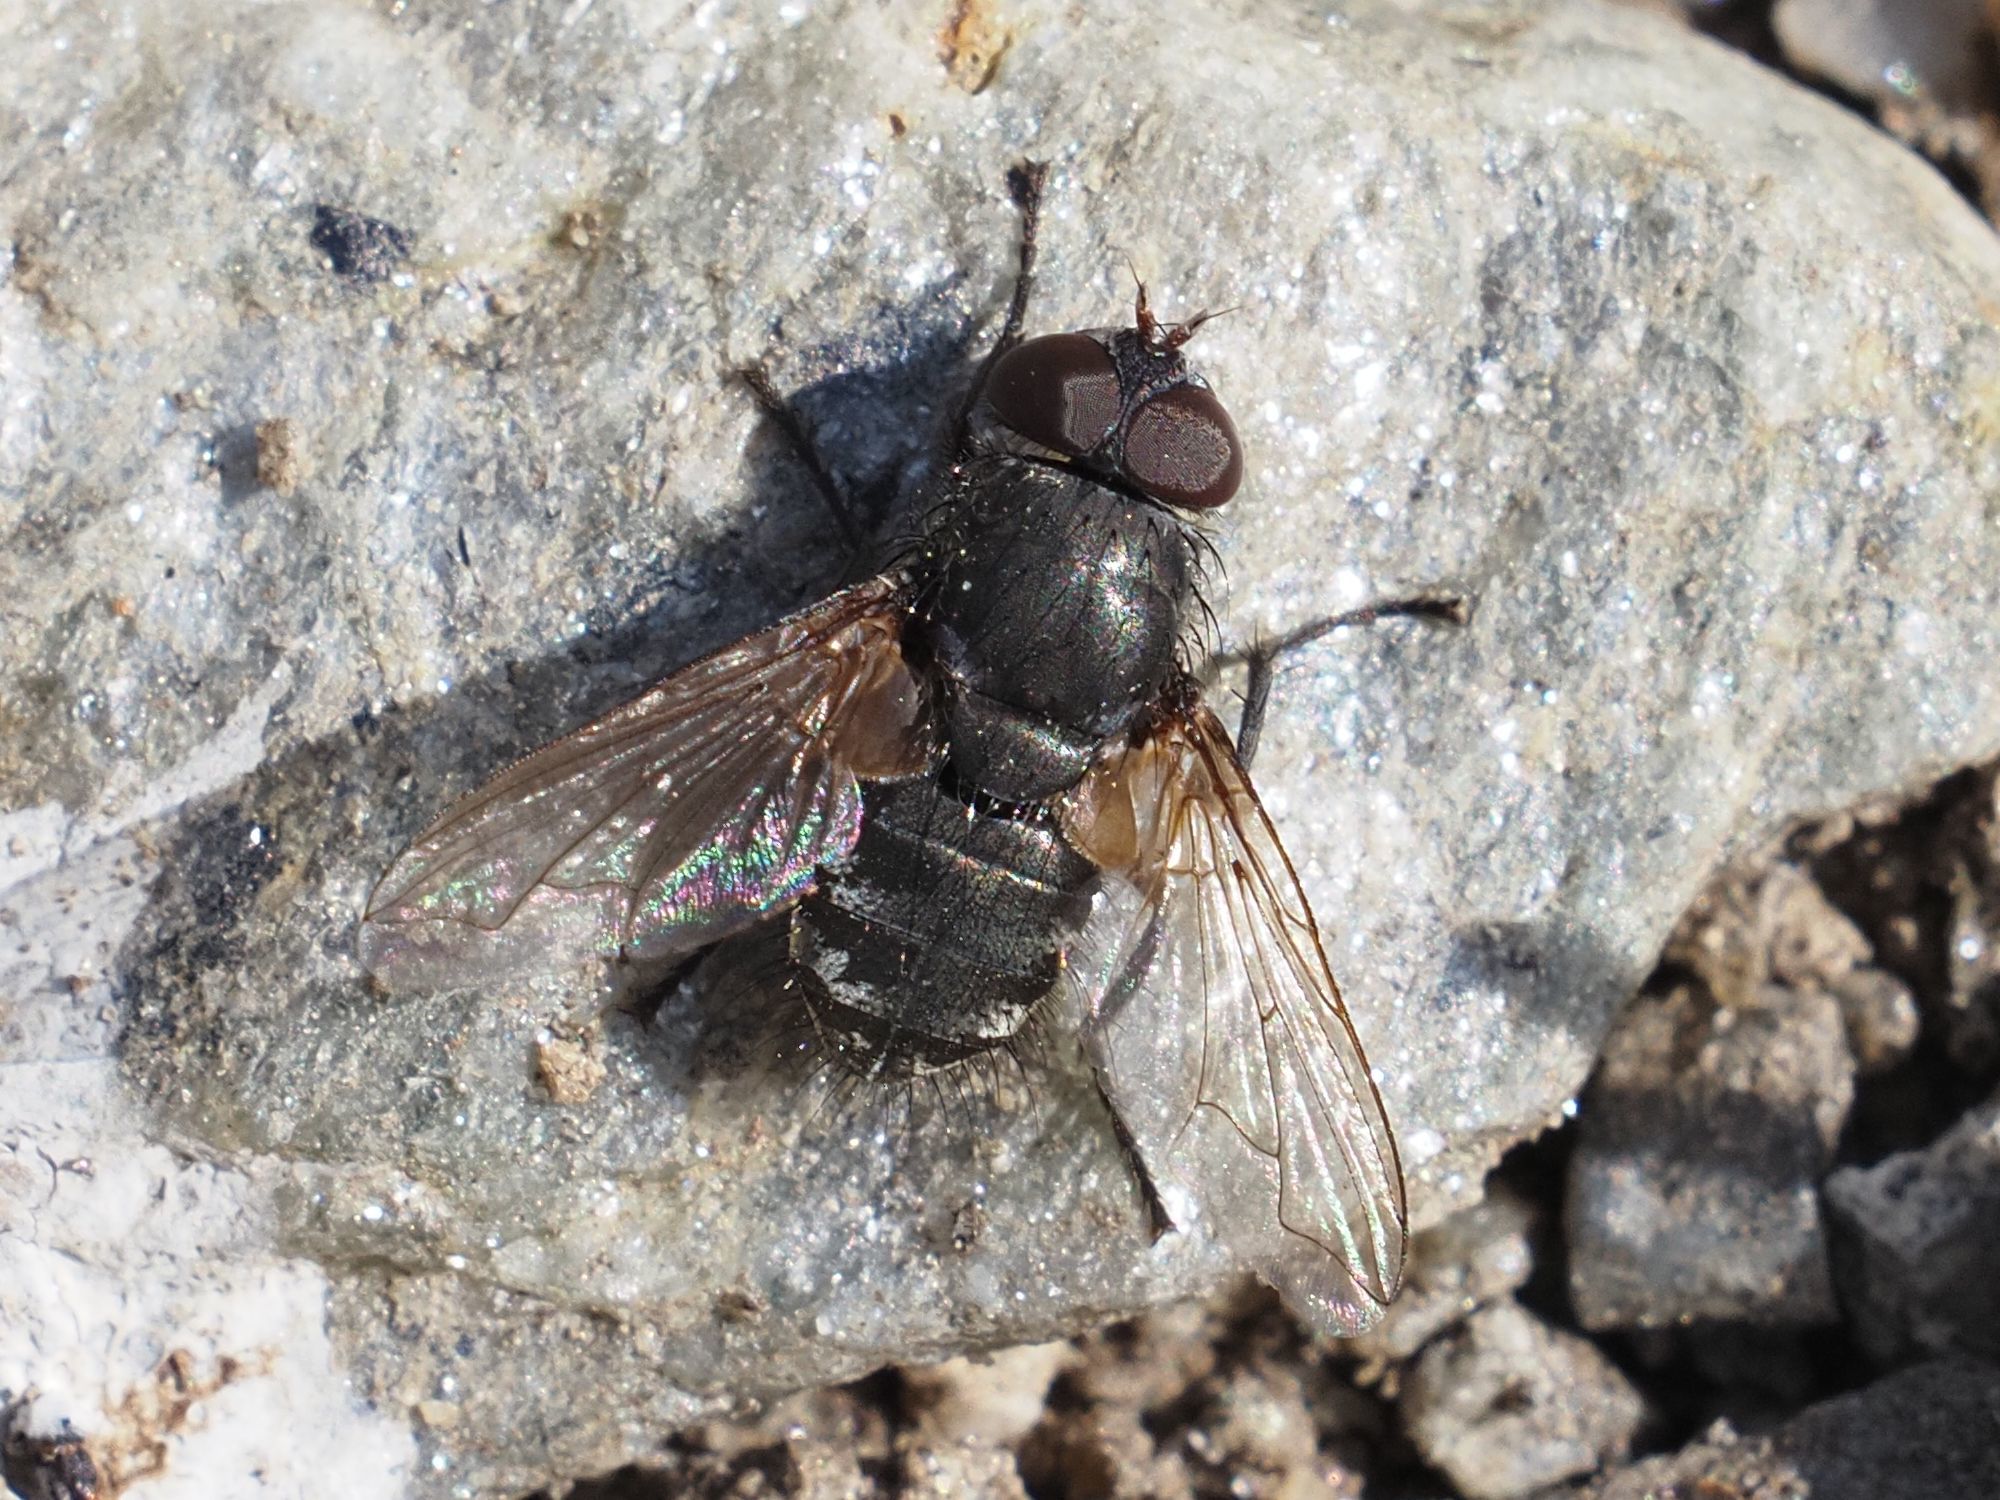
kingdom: Animalia
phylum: Arthropoda
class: Insecta
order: Diptera
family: Polleniidae
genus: Pollenia
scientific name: Pollenia angustigena
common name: Narrow-cheeked clusterfly
